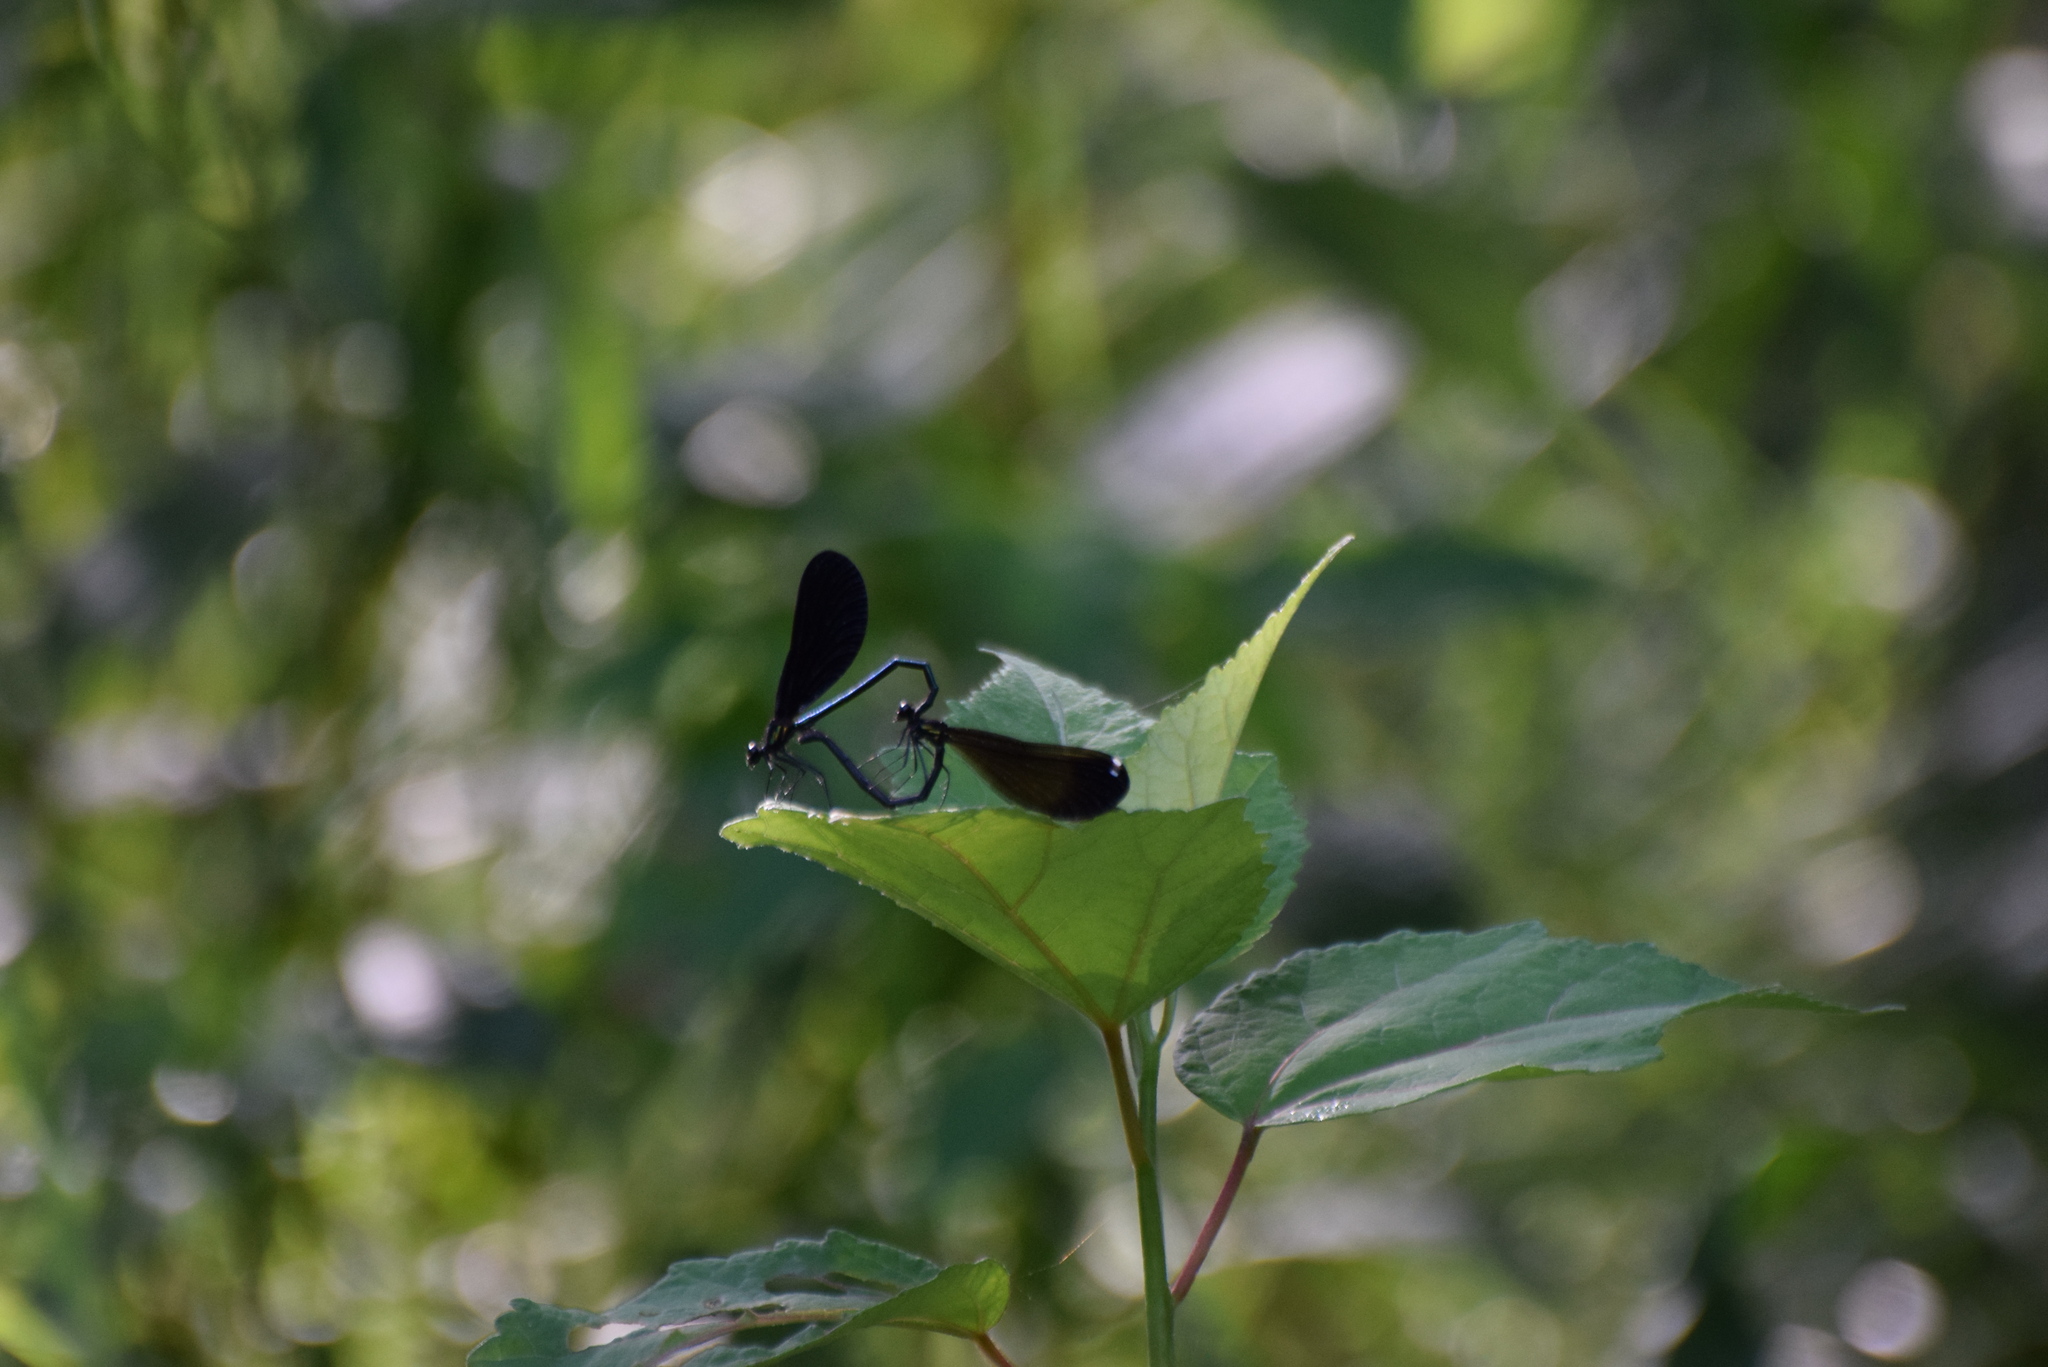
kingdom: Animalia
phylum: Arthropoda
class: Insecta
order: Odonata
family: Calopterygidae
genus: Calopteryx
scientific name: Calopteryx maculata
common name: Ebony jewelwing
